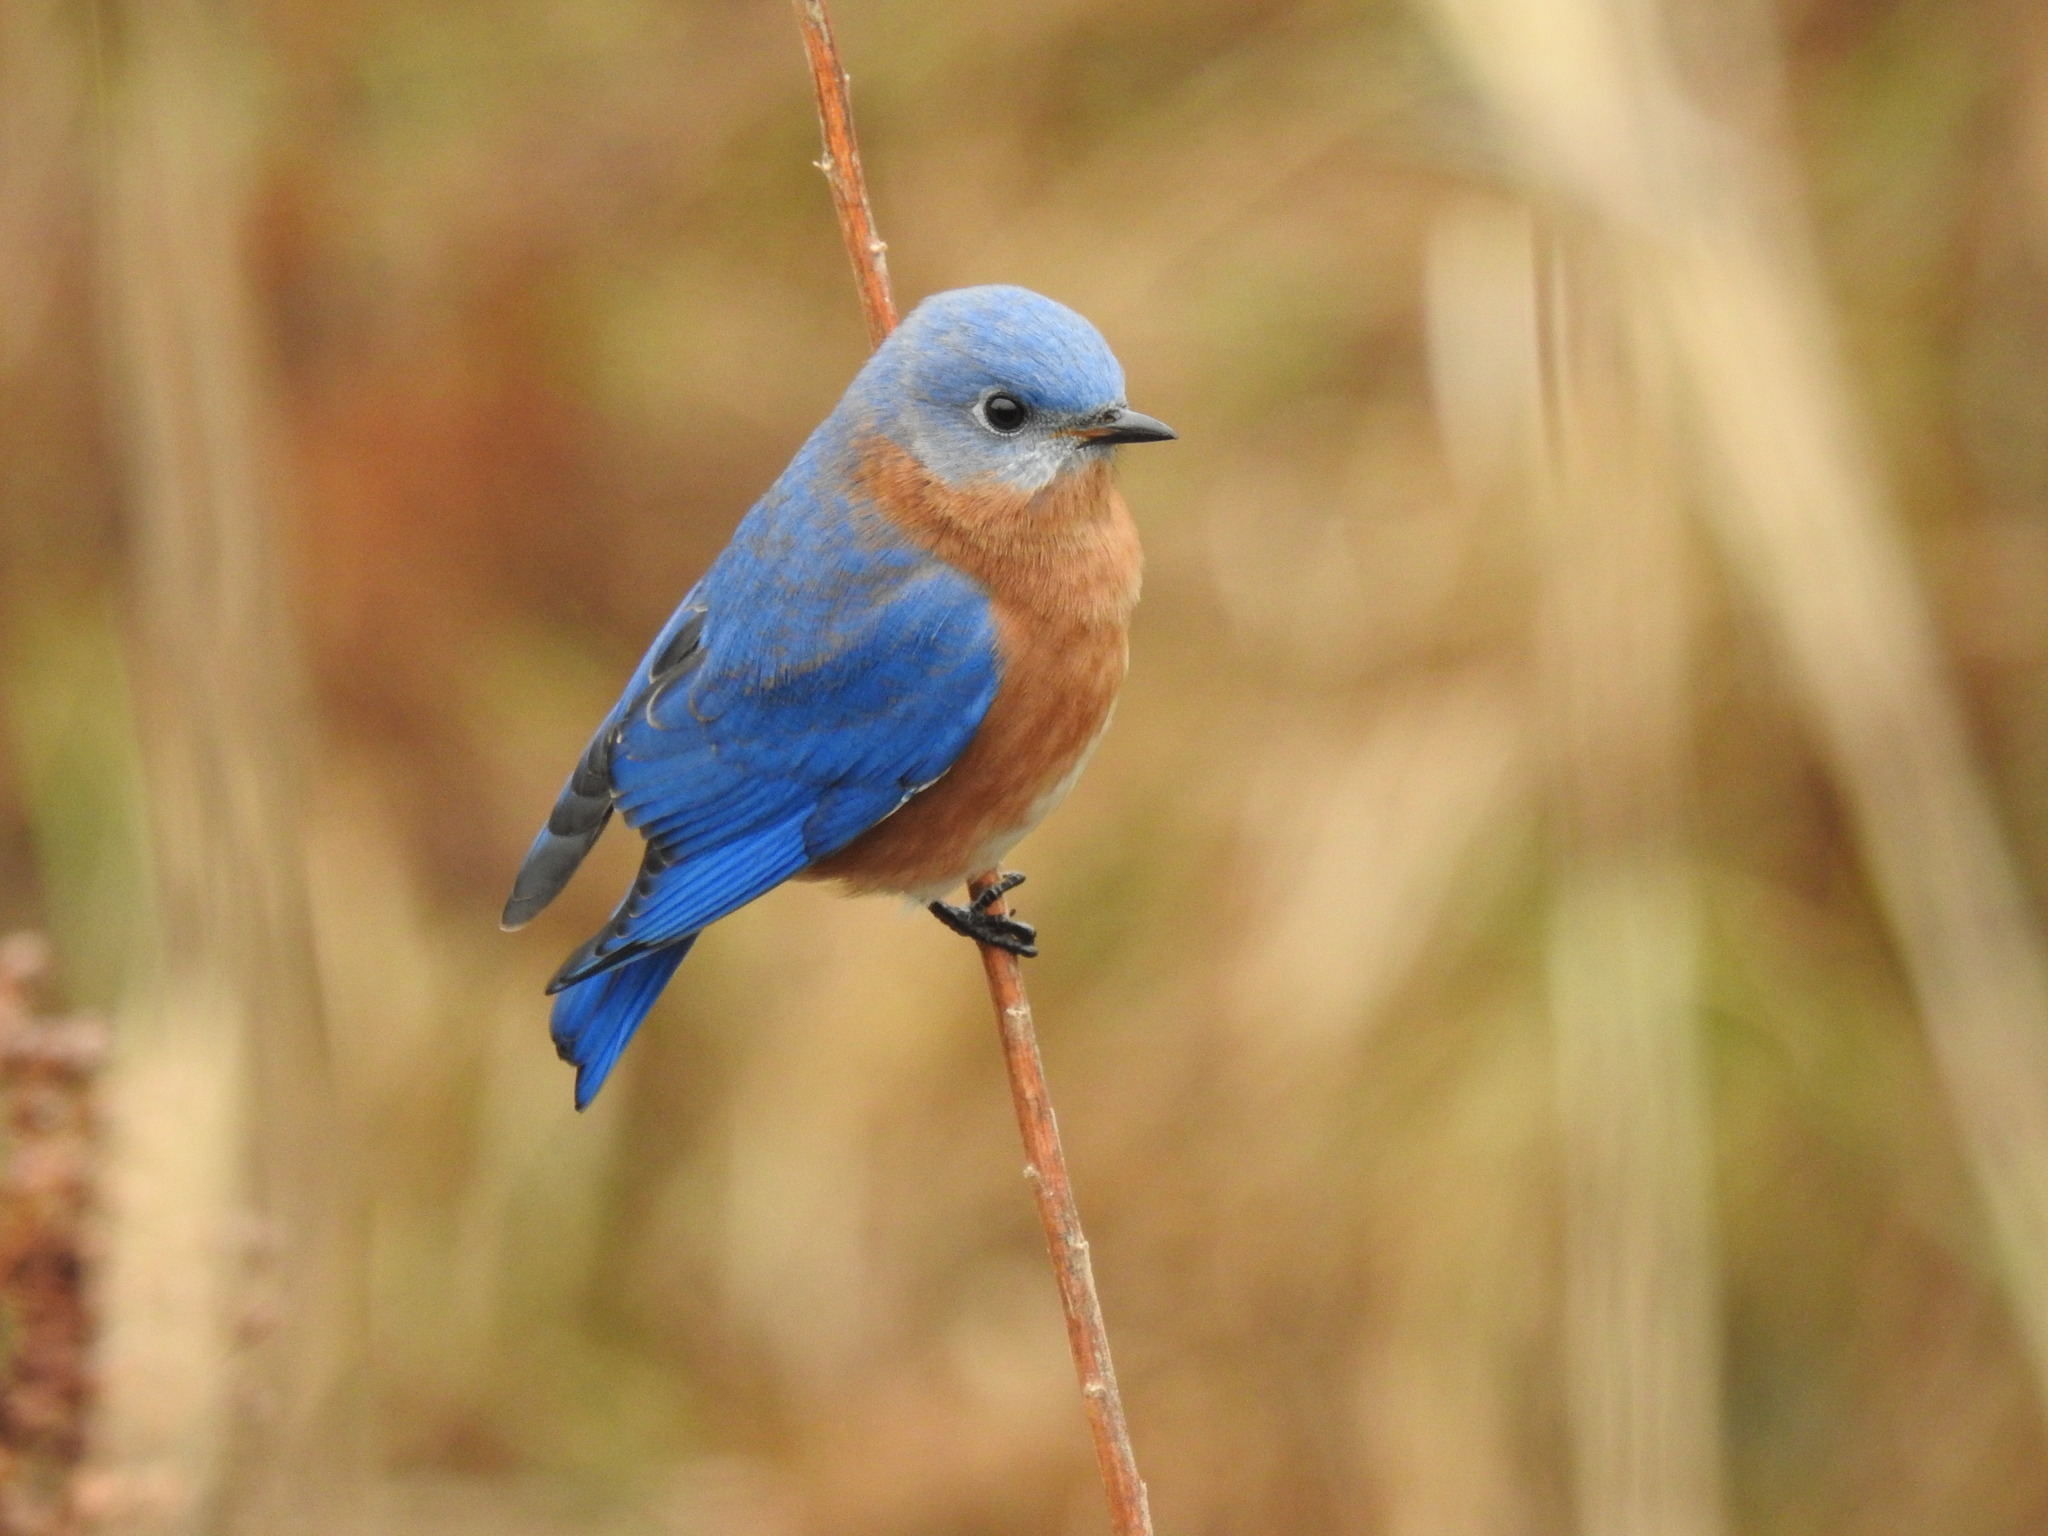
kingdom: Animalia
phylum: Chordata
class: Aves
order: Passeriformes
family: Turdidae
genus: Sialia
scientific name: Sialia sialis
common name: Eastern bluebird
